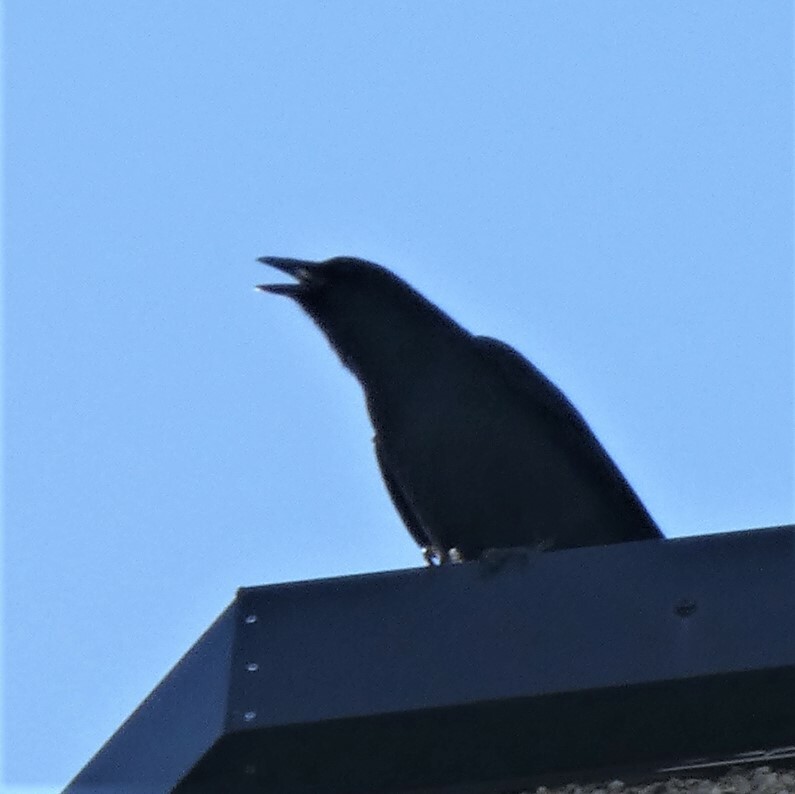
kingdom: Animalia
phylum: Chordata
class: Aves
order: Passeriformes
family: Corvidae
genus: Corvus
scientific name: Corvus brachyrhynchos
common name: American crow
